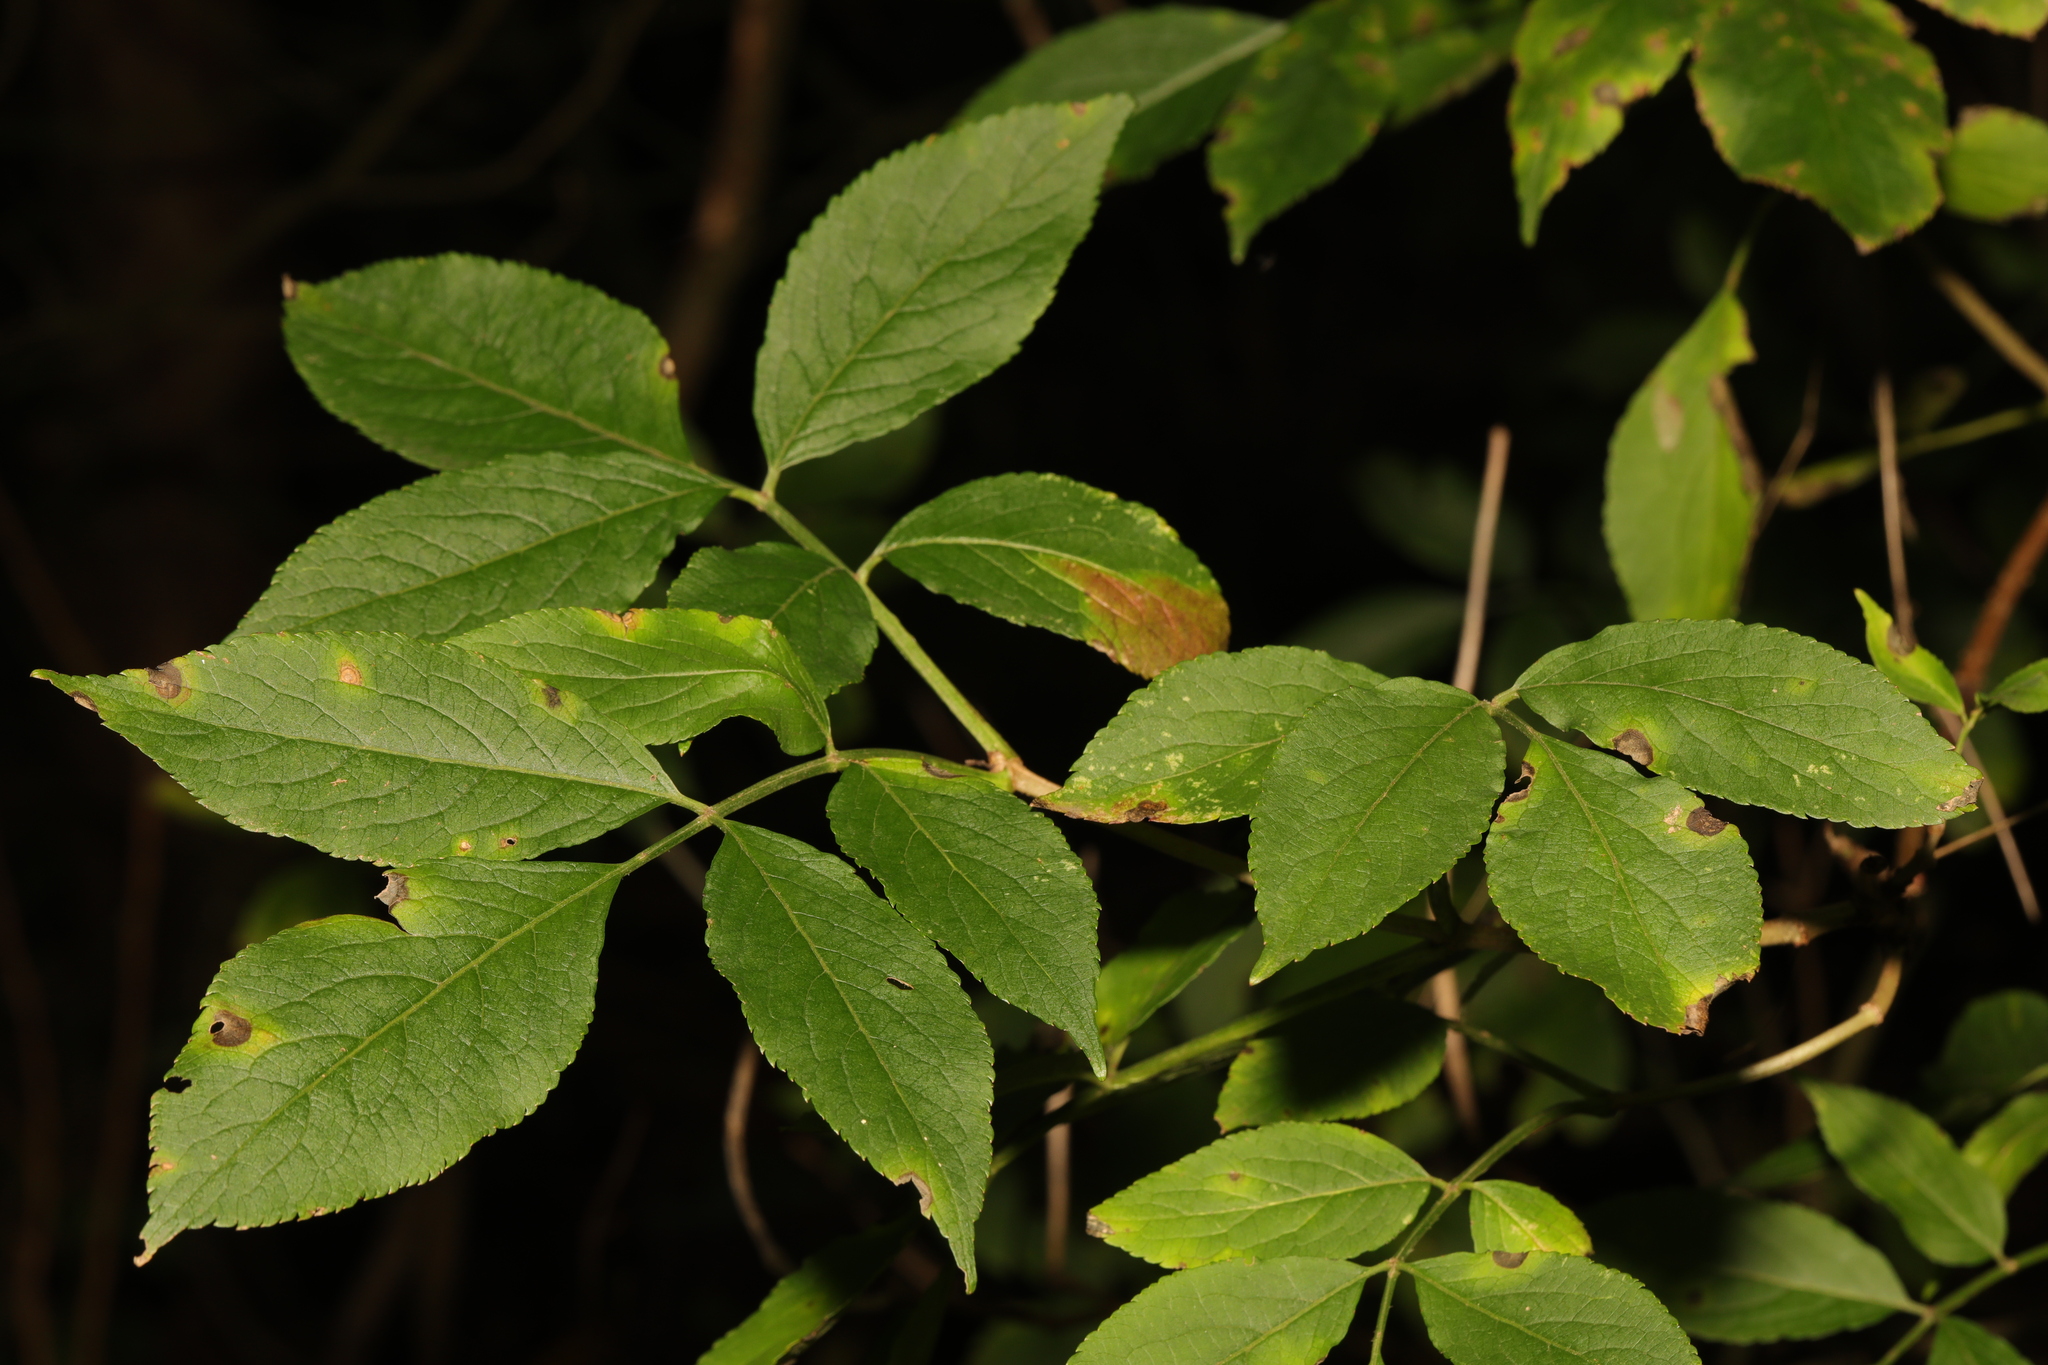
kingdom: Plantae
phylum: Tracheophyta
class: Magnoliopsida
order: Dipsacales
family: Viburnaceae
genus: Sambucus
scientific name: Sambucus nigra
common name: Elder
